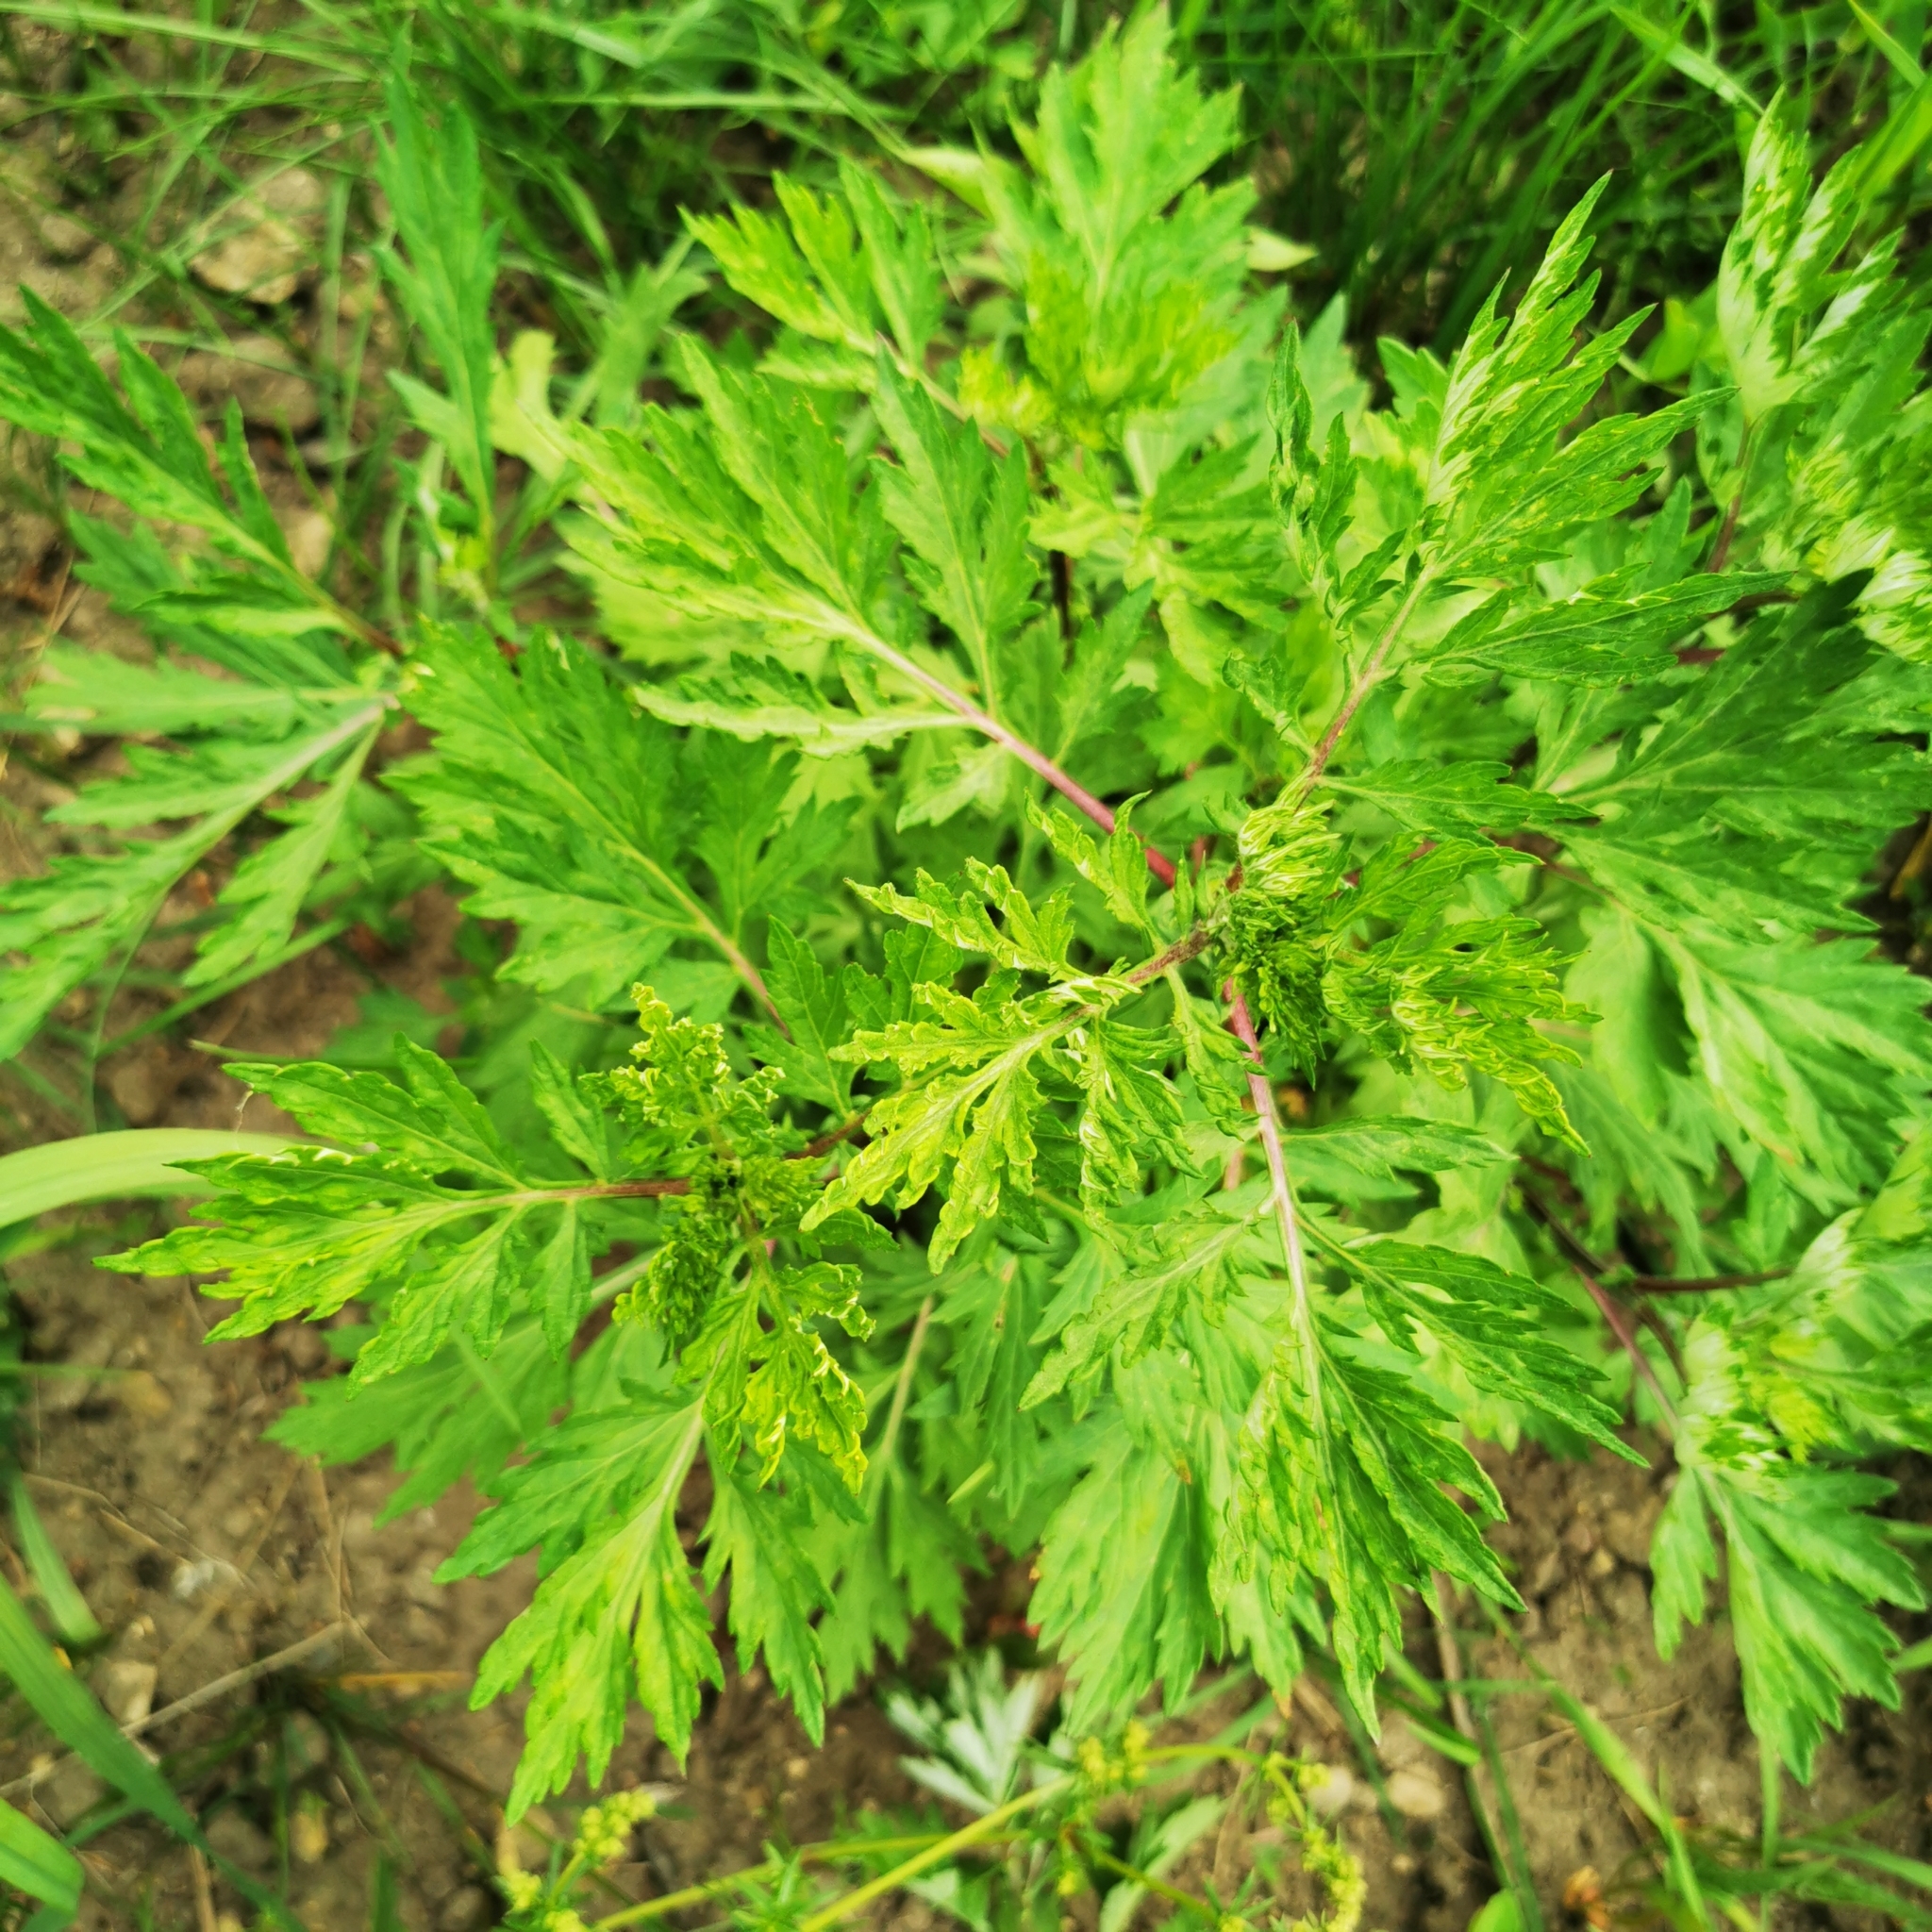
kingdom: Plantae
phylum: Tracheophyta
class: Magnoliopsida
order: Asterales
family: Asteraceae
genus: Artemisia
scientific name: Artemisia vulgaris
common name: Mugwort
